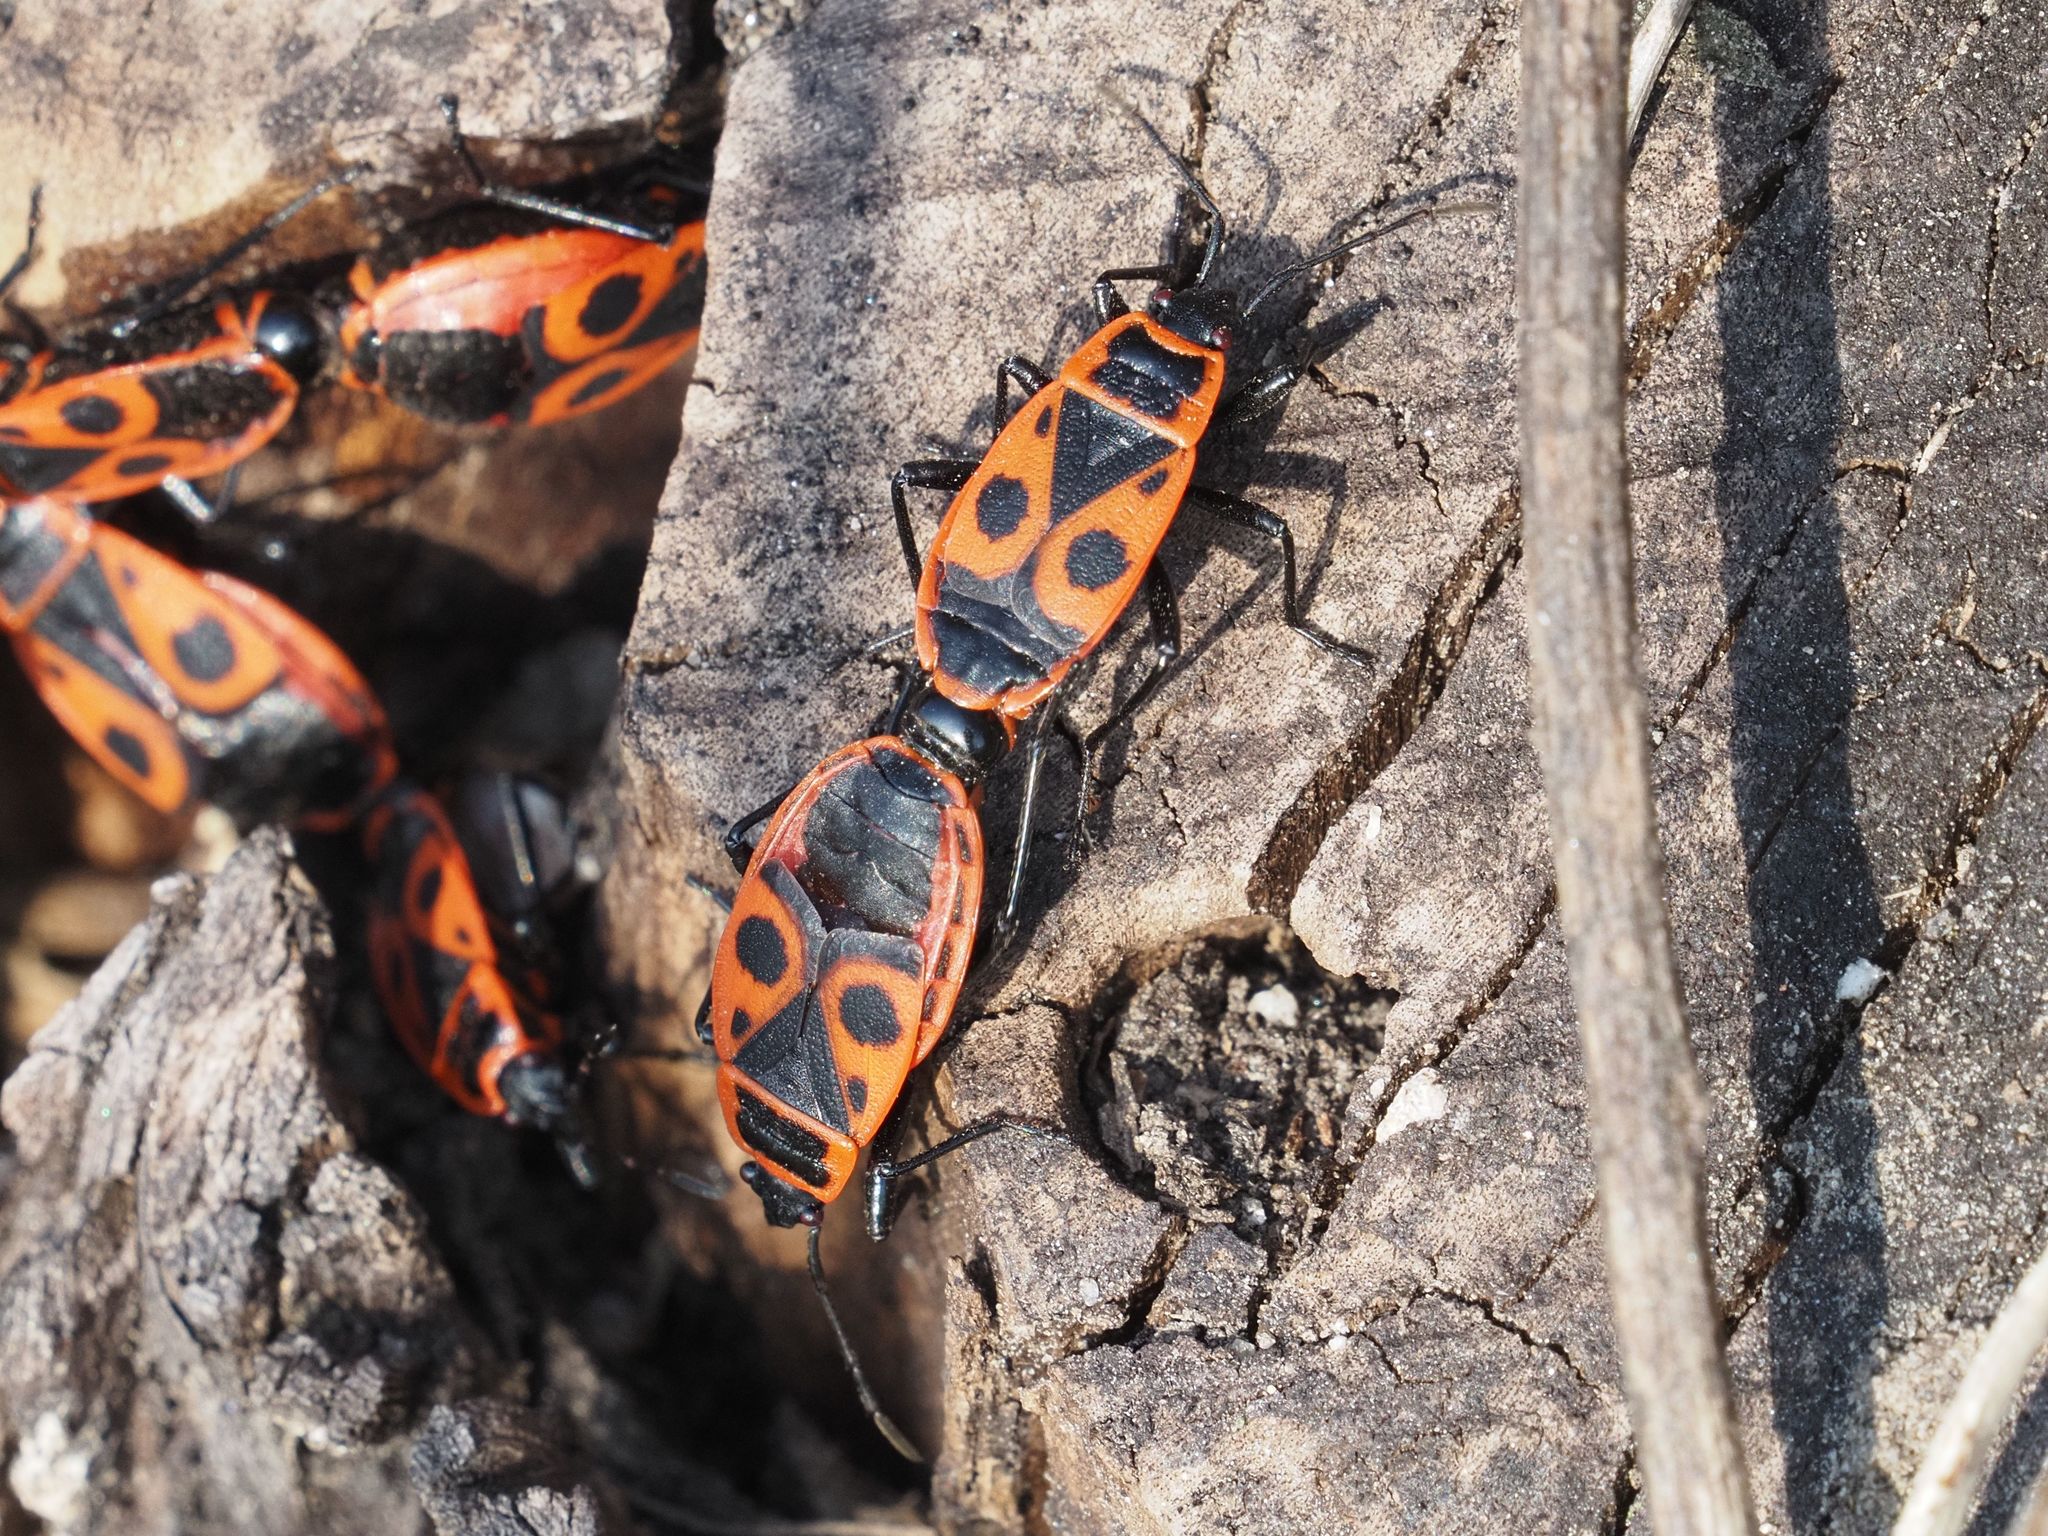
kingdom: Animalia
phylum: Arthropoda
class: Insecta
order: Hemiptera
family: Pyrrhocoridae
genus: Pyrrhocoris
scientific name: Pyrrhocoris apterus
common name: Firebug
